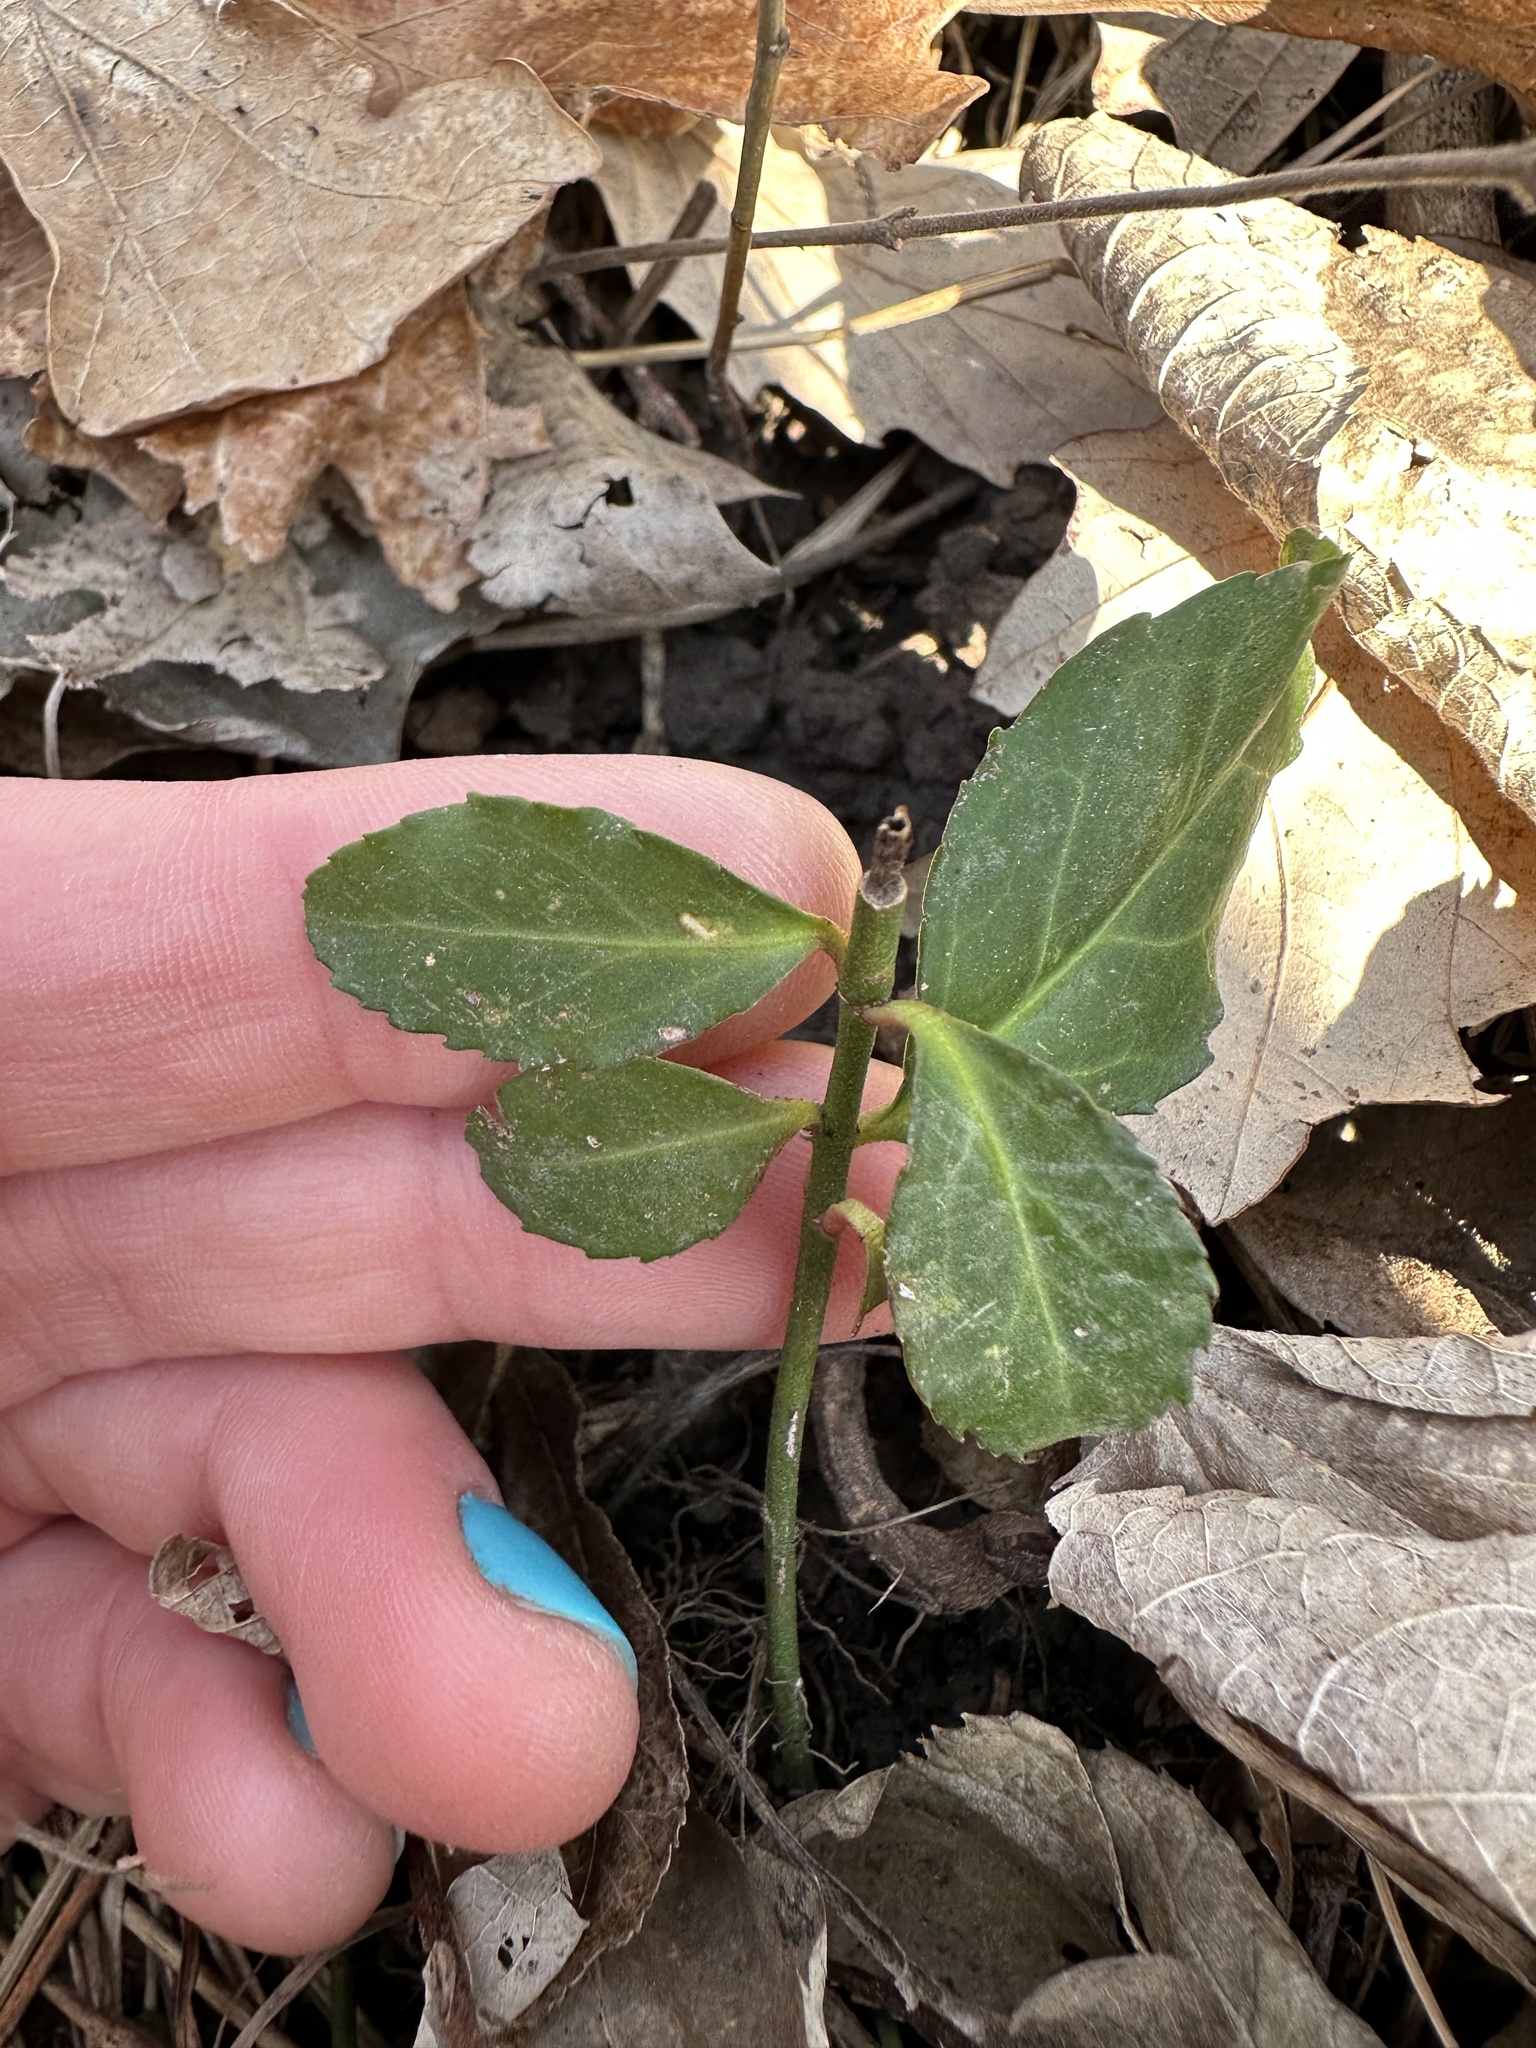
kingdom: Plantae
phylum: Tracheophyta
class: Magnoliopsida
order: Celastrales
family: Celastraceae
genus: Euonymus
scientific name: Euonymus fortunei
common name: Climbing euonymus
